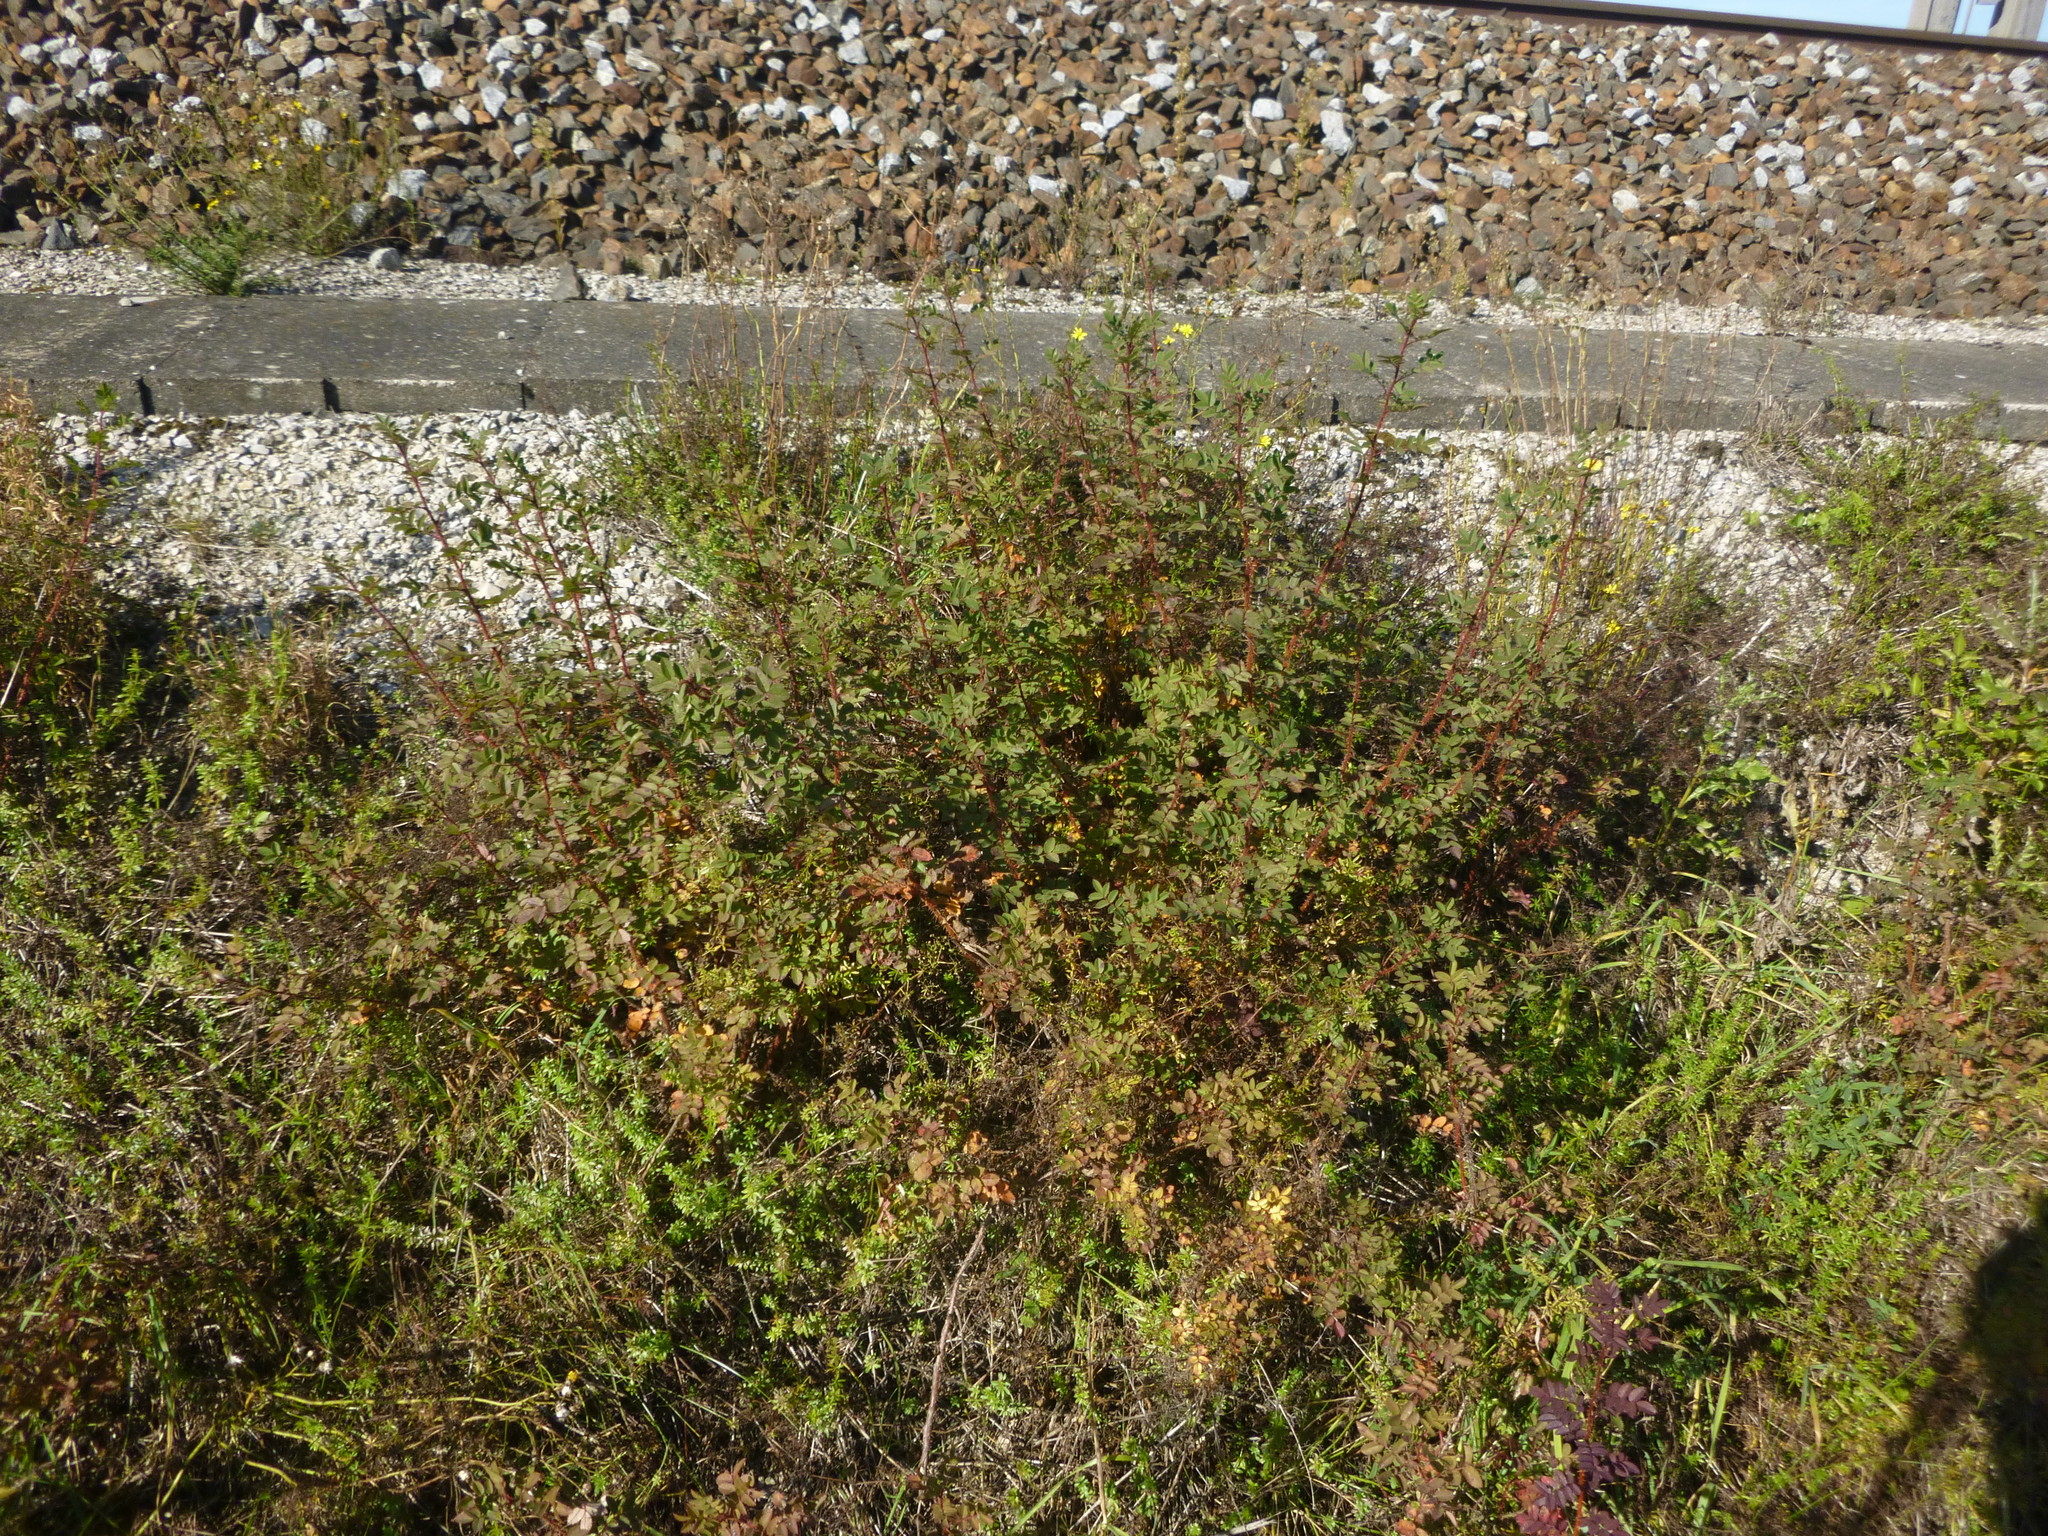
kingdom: Plantae
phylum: Tracheophyta
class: Magnoliopsida
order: Rosales
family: Rosaceae
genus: Rosa
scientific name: Rosa spinosissima
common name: Burnet rose
